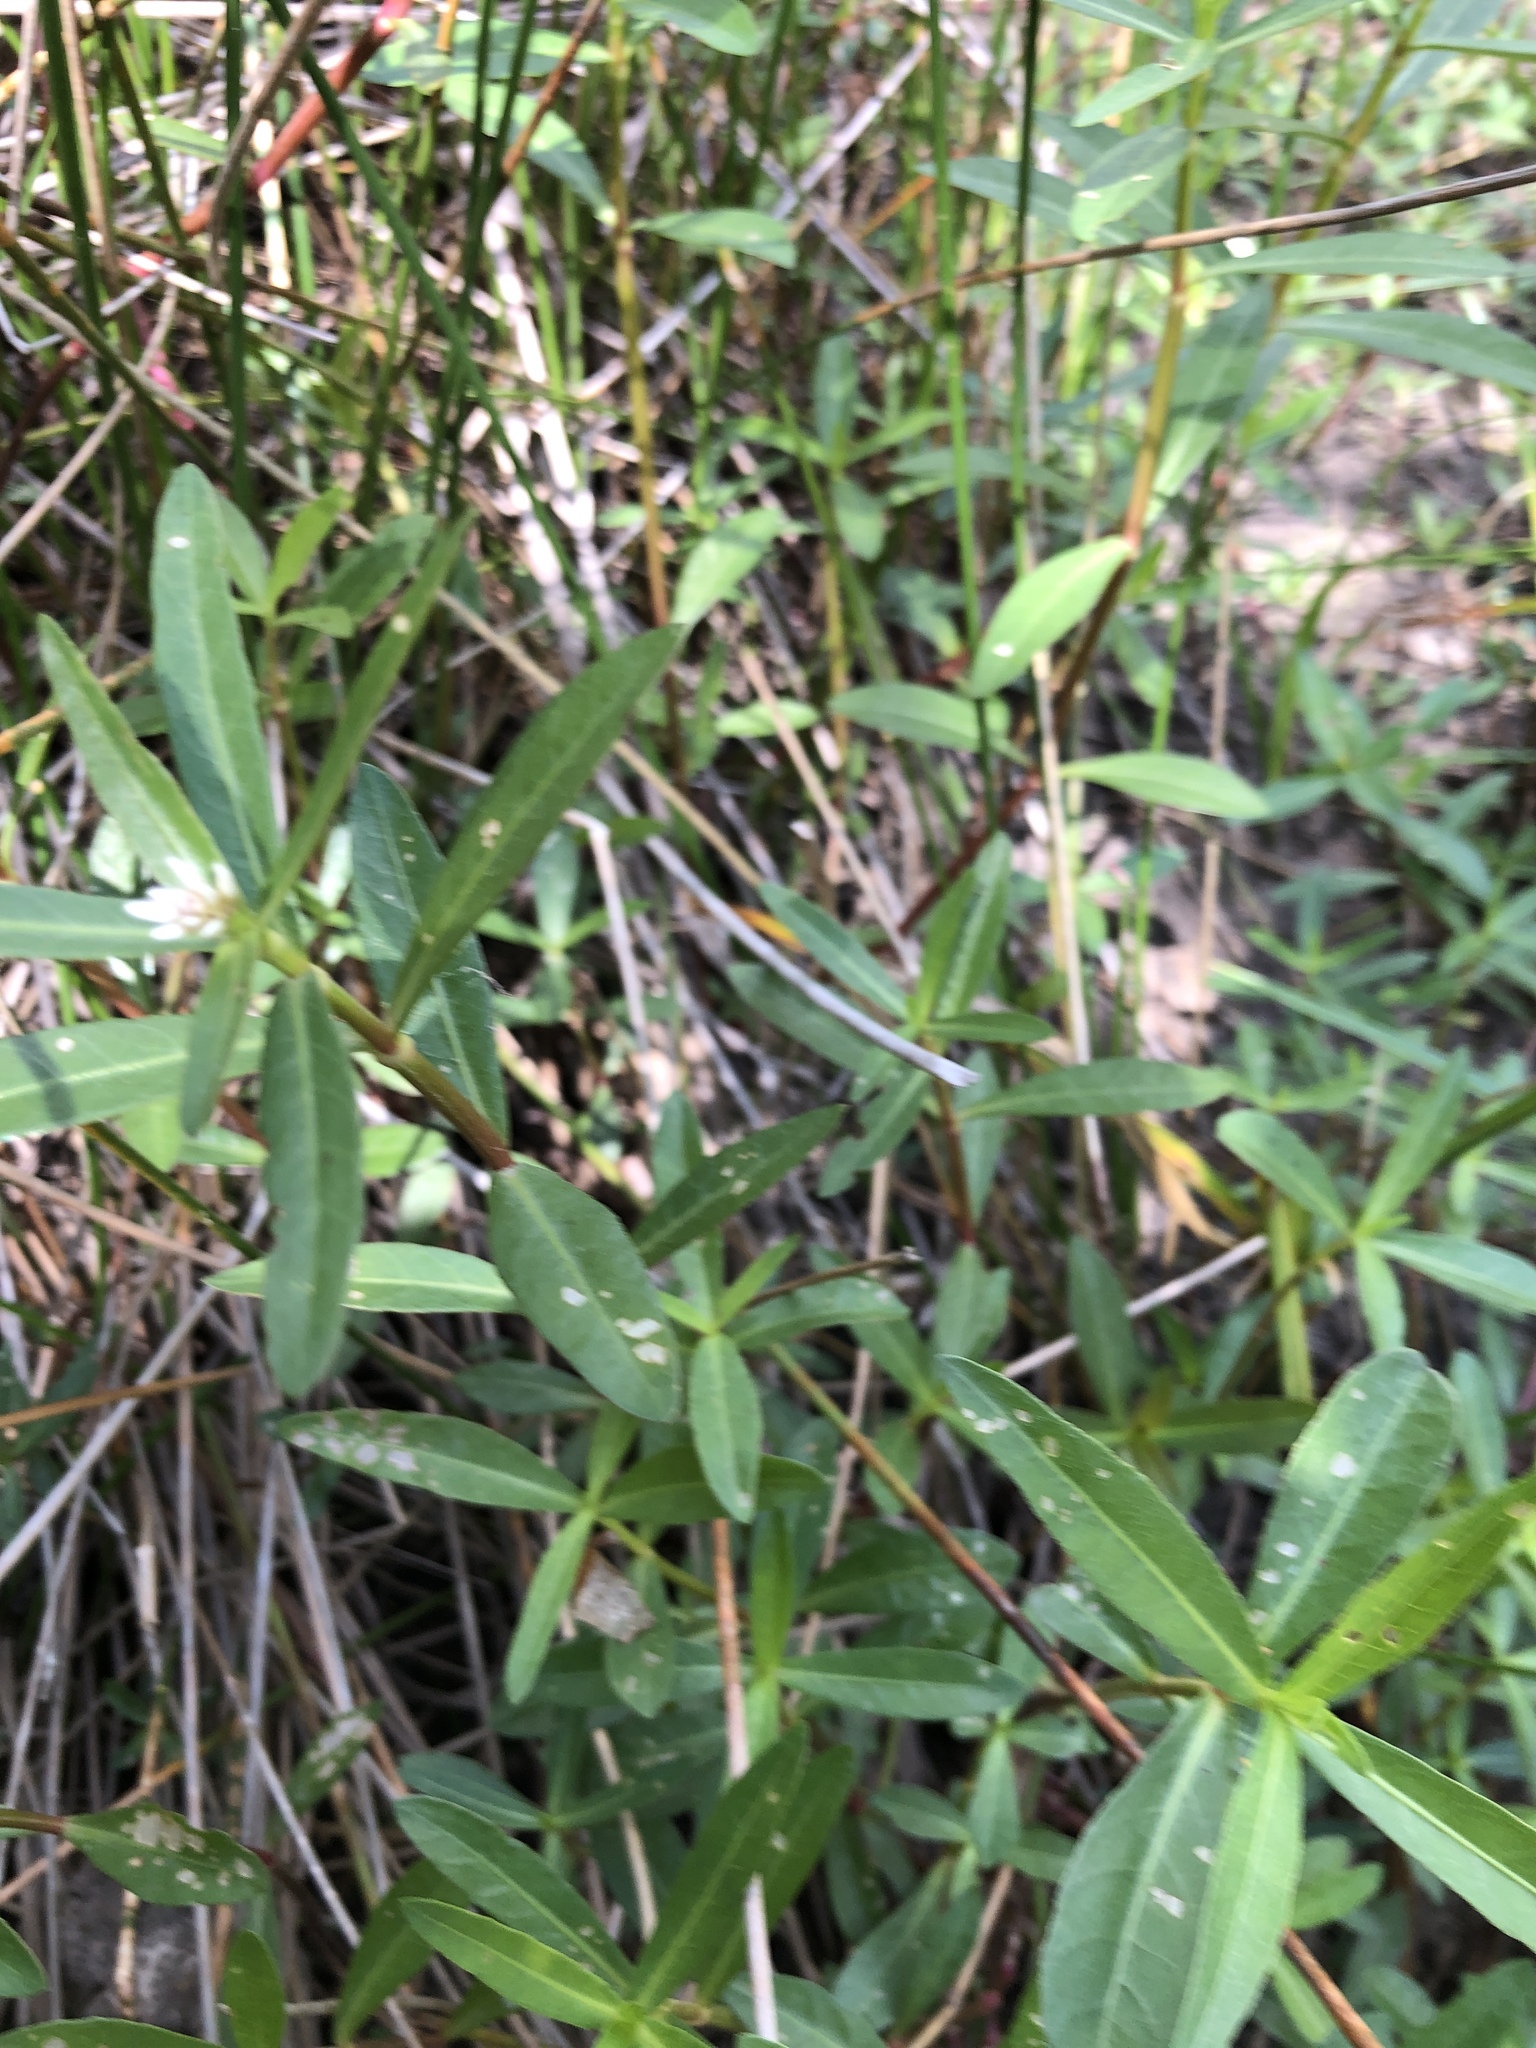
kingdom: Plantae
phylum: Tracheophyta
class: Magnoliopsida
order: Caryophyllales
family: Amaranthaceae
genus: Alternanthera
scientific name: Alternanthera philoxeroides
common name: Alligatorweed
